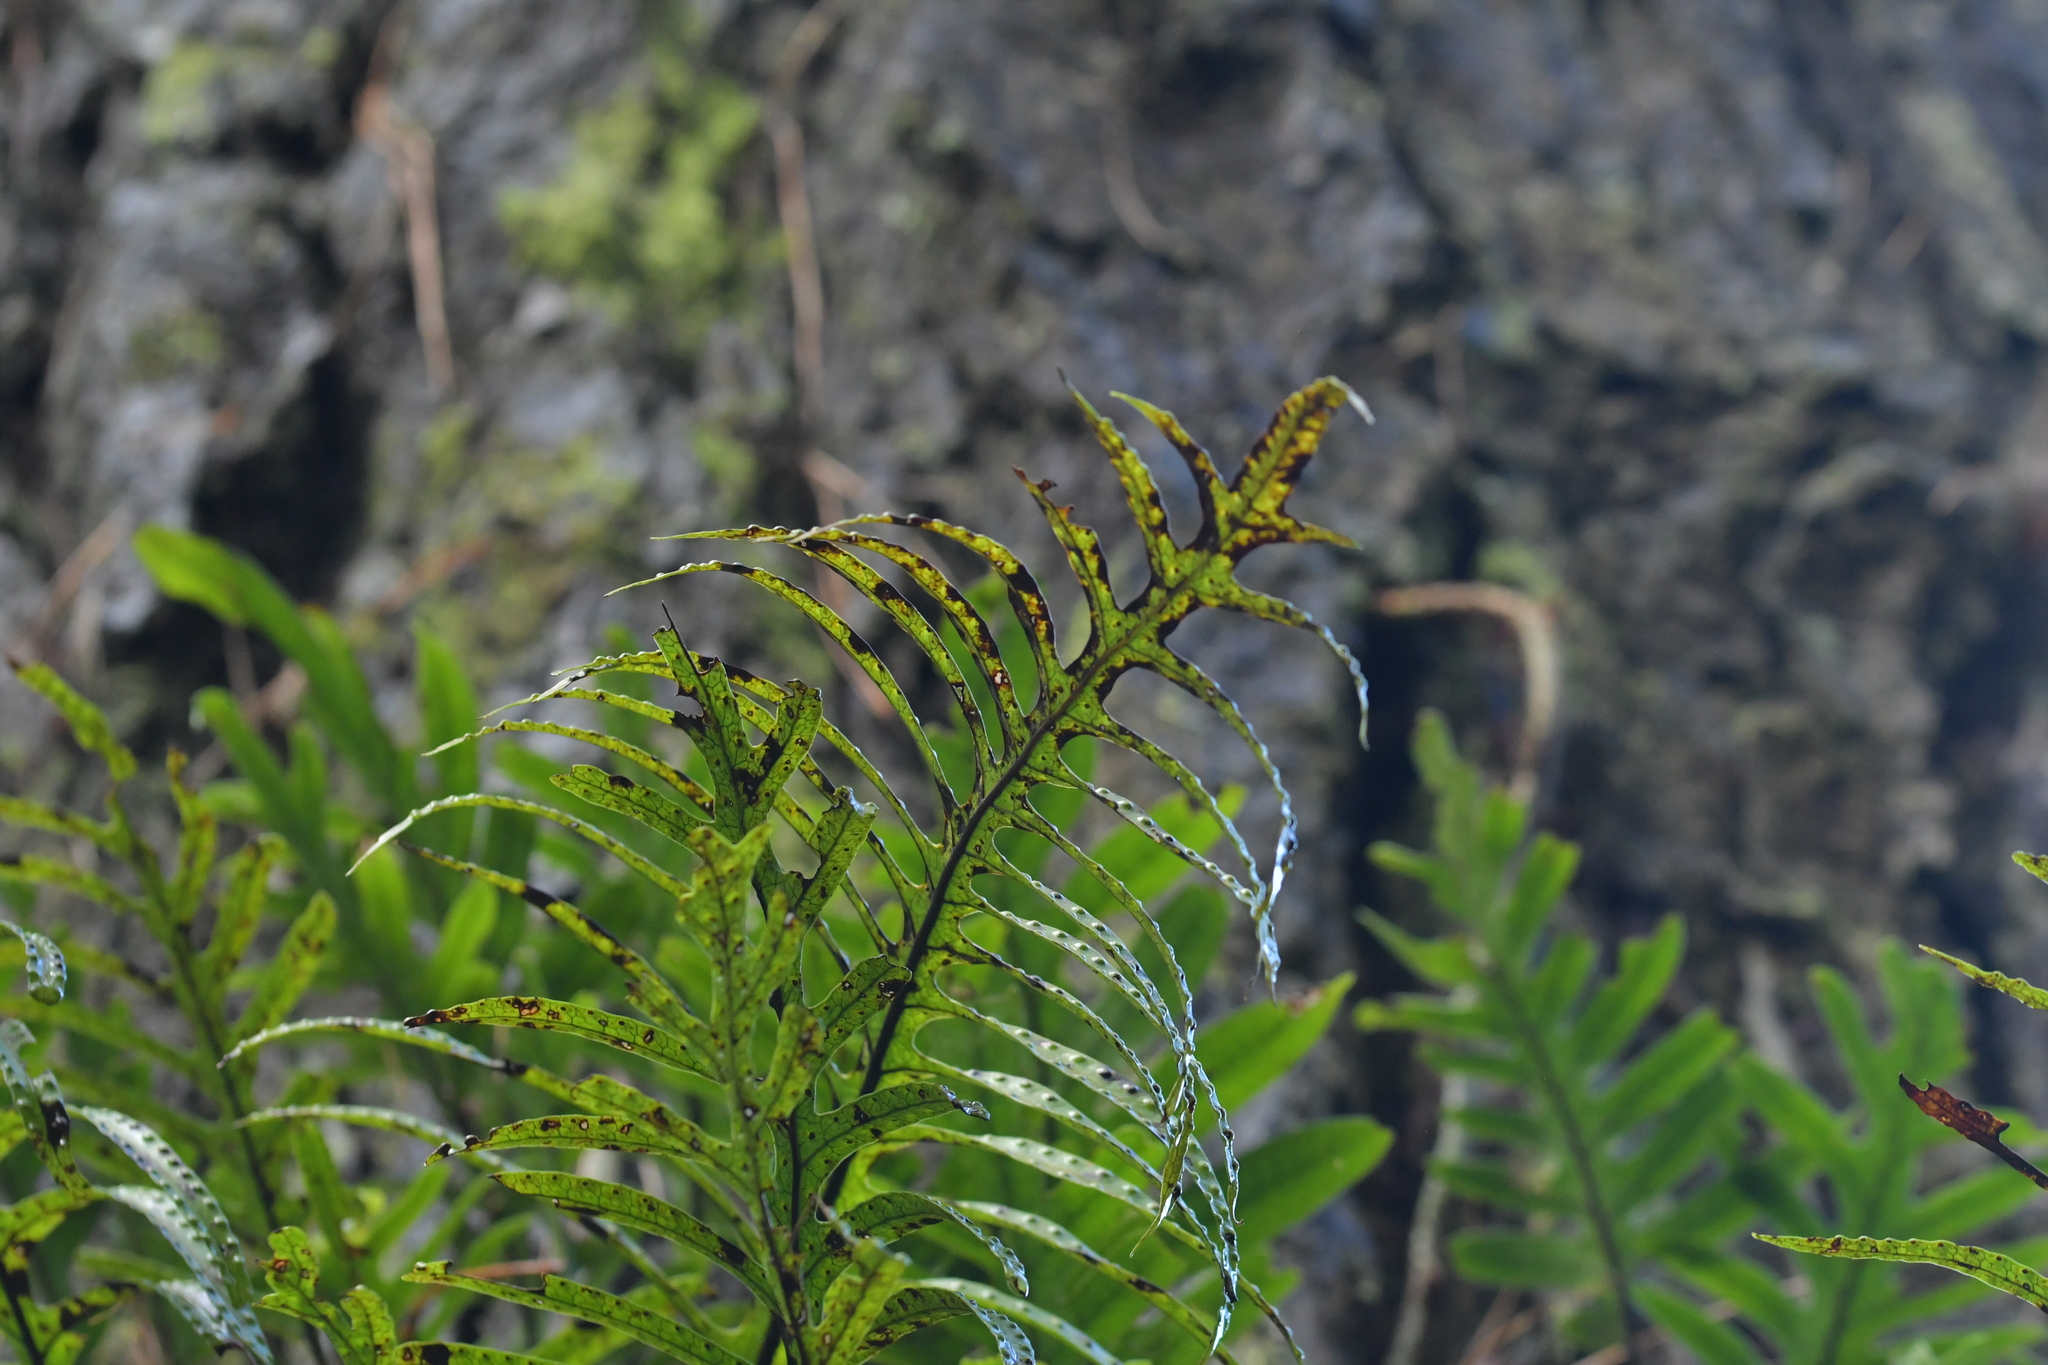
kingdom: Plantae
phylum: Tracheophyta
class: Polypodiopsida
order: Polypodiales
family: Polypodiaceae
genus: Lecanopteris
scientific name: Lecanopteris scandens
